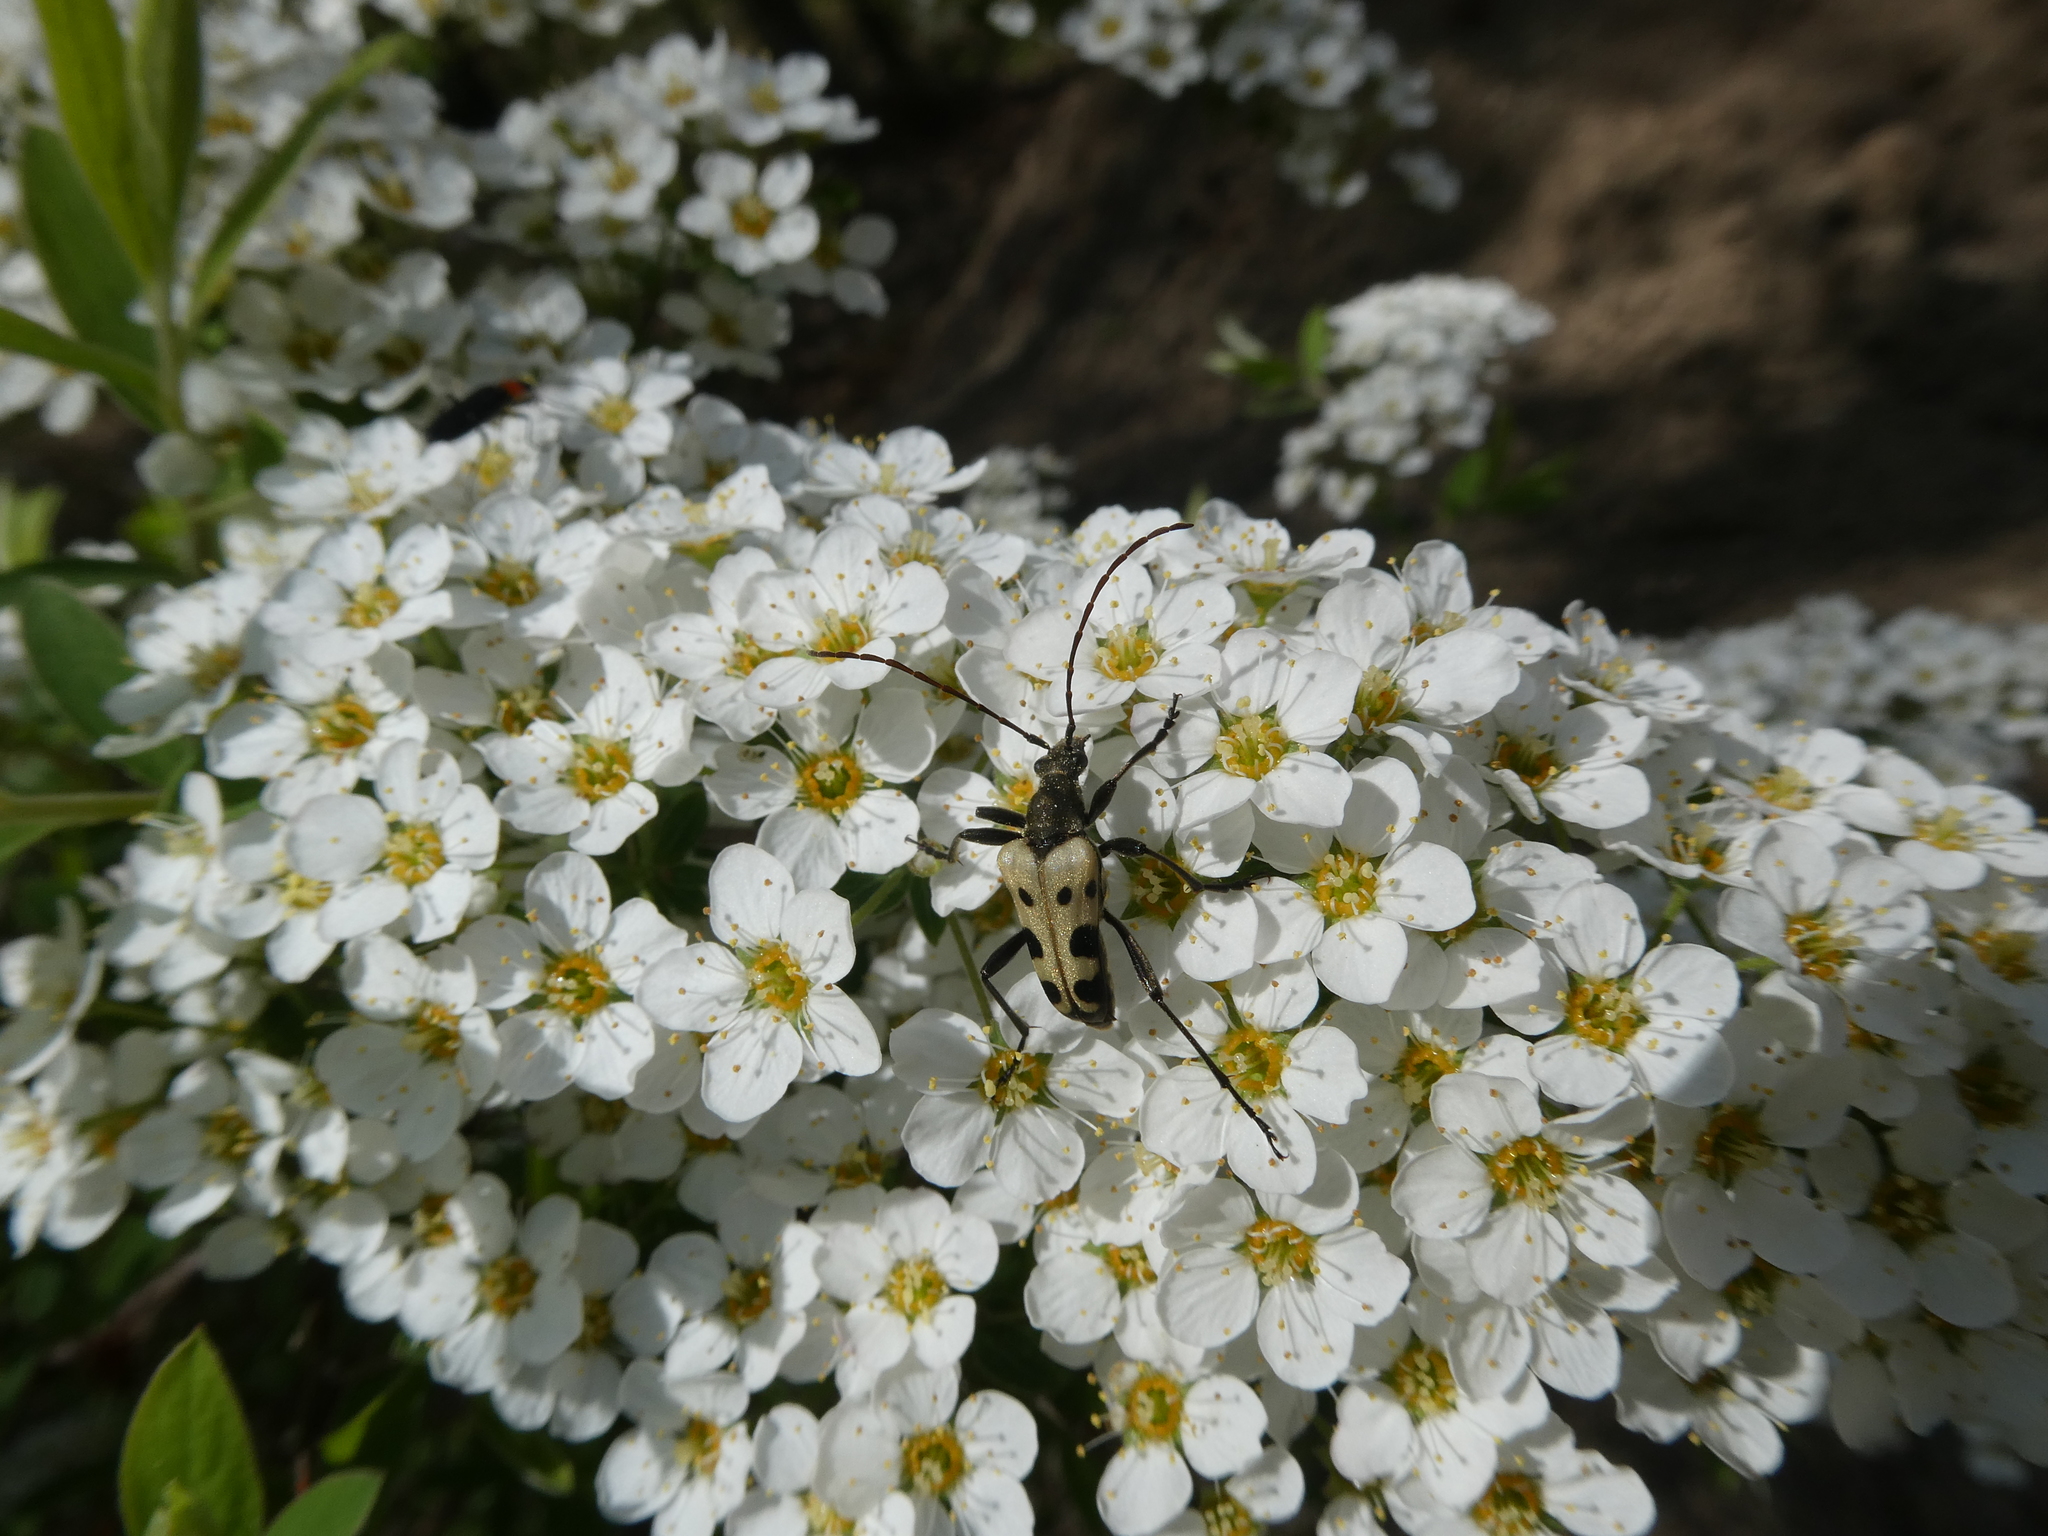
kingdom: Animalia
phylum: Arthropoda
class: Insecta
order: Coleoptera
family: Cerambycidae
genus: Evodinus
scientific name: Evodinus monticola
